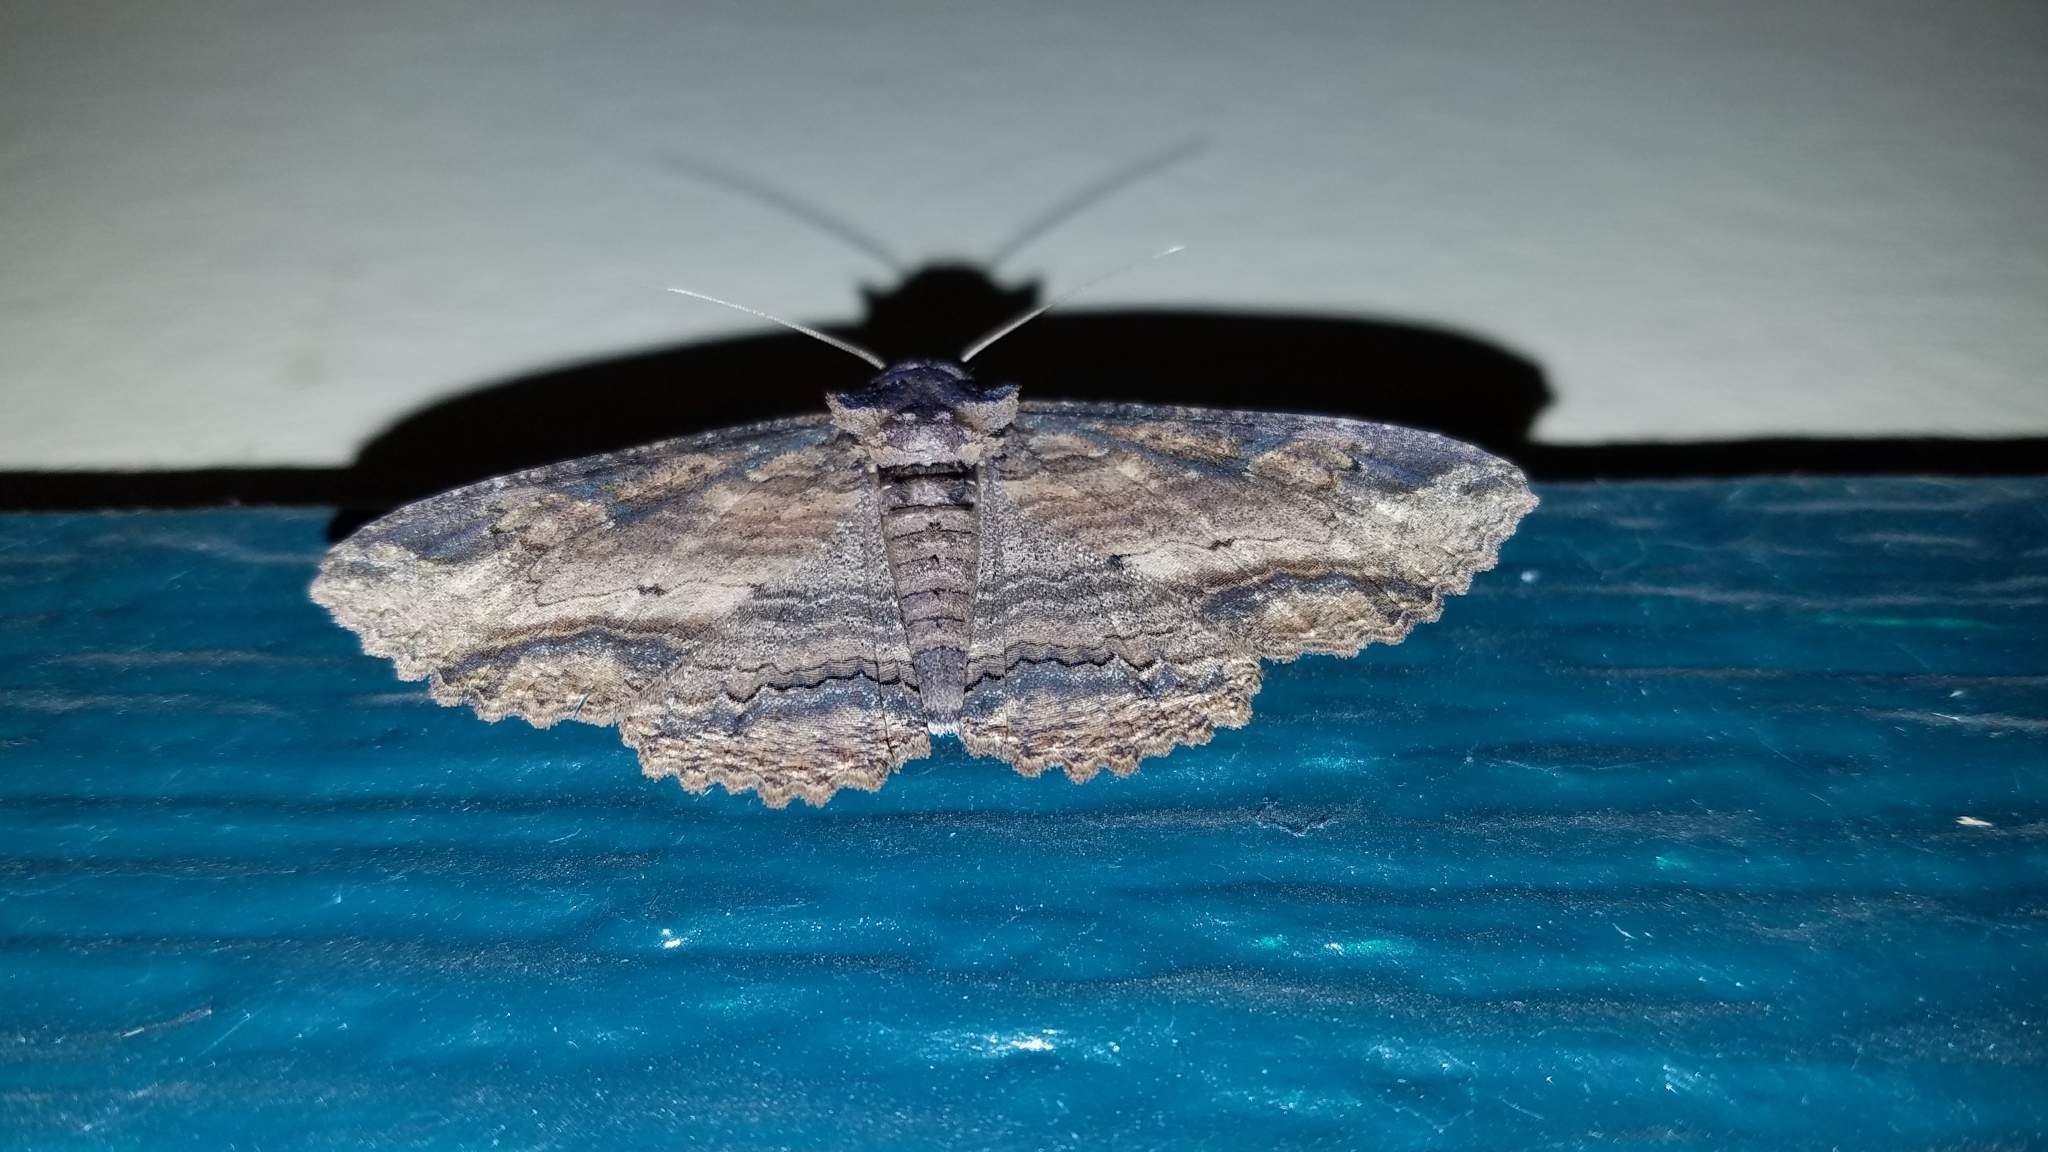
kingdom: Animalia
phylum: Arthropoda
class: Insecta
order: Lepidoptera
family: Erebidae
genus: Zale
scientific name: Zale lunata
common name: Lunate zale moth
